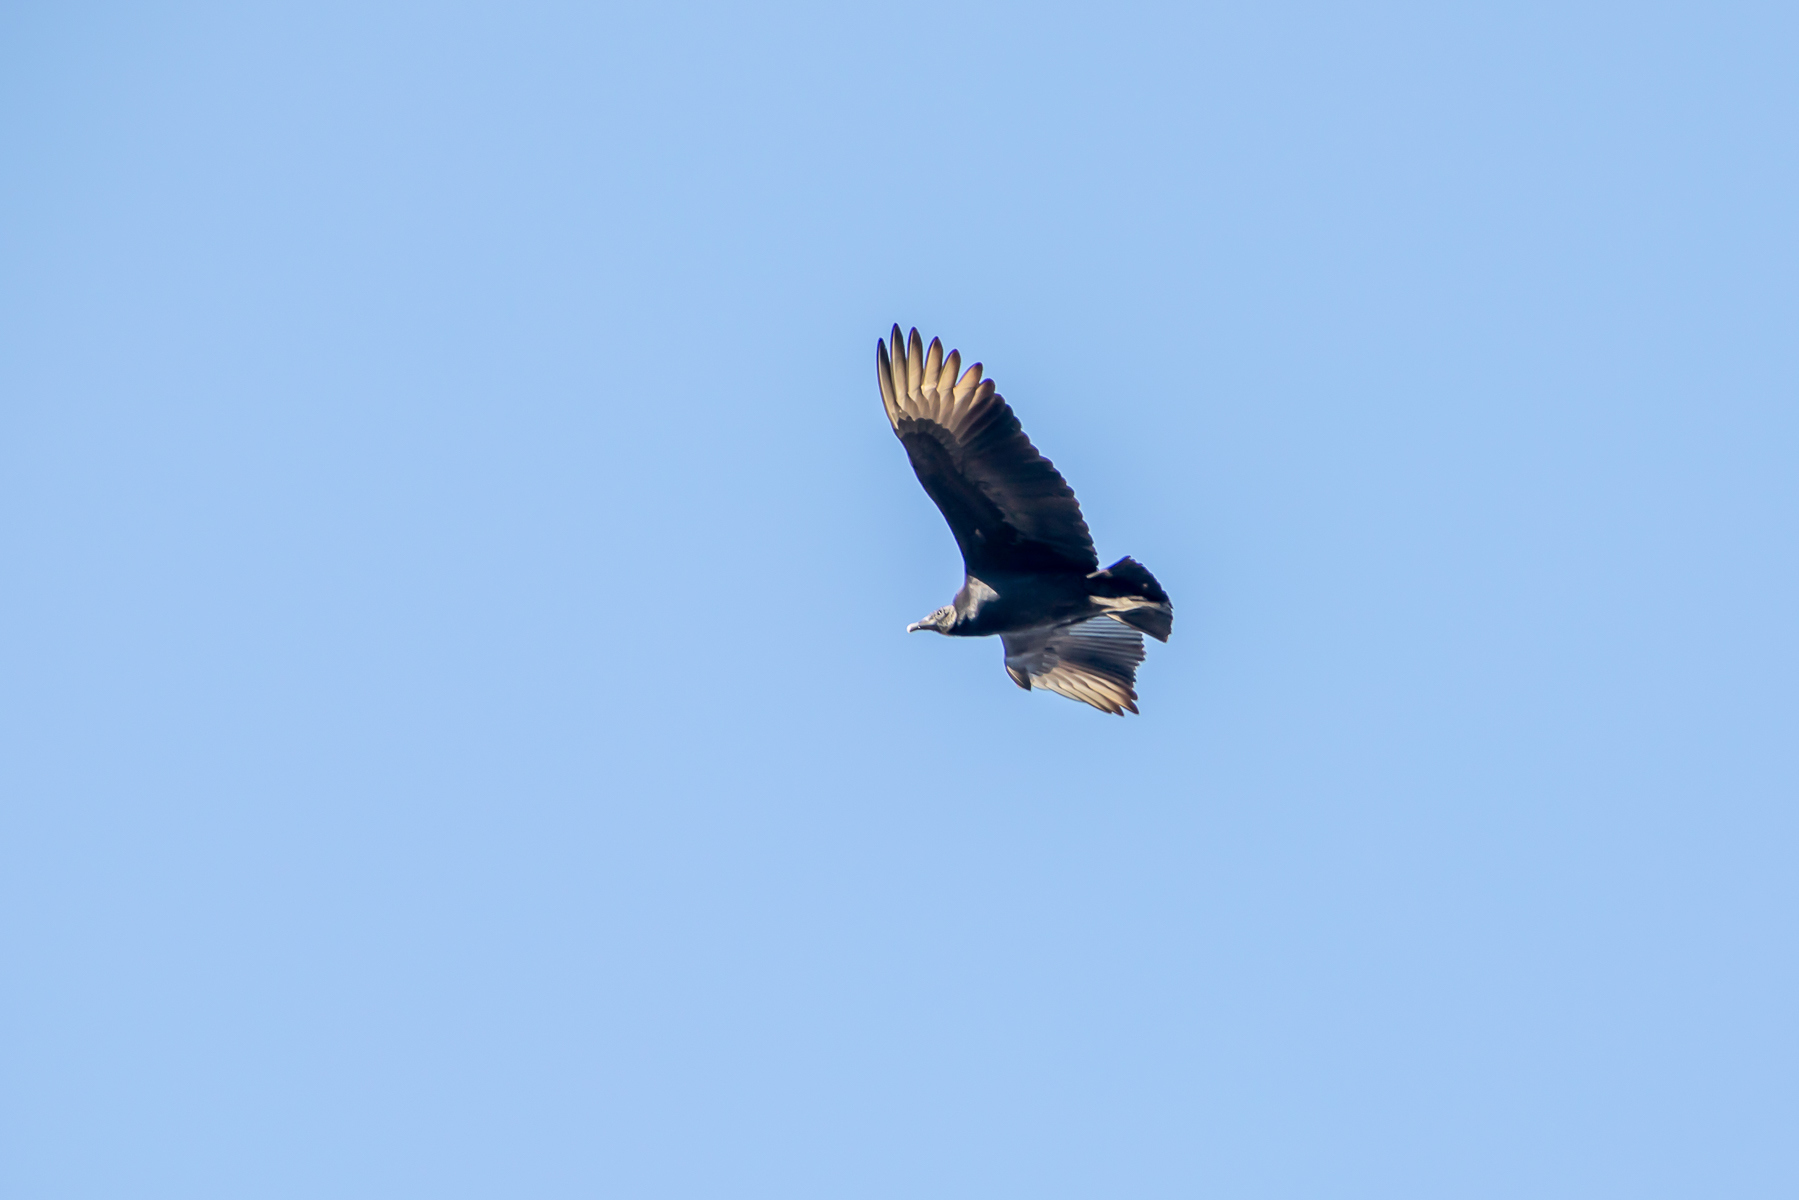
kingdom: Animalia
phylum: Chordata
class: Aves
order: Accipitriformes
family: Cathartidae
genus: Coragyps
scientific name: Coragyps atratus
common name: Black vulture
